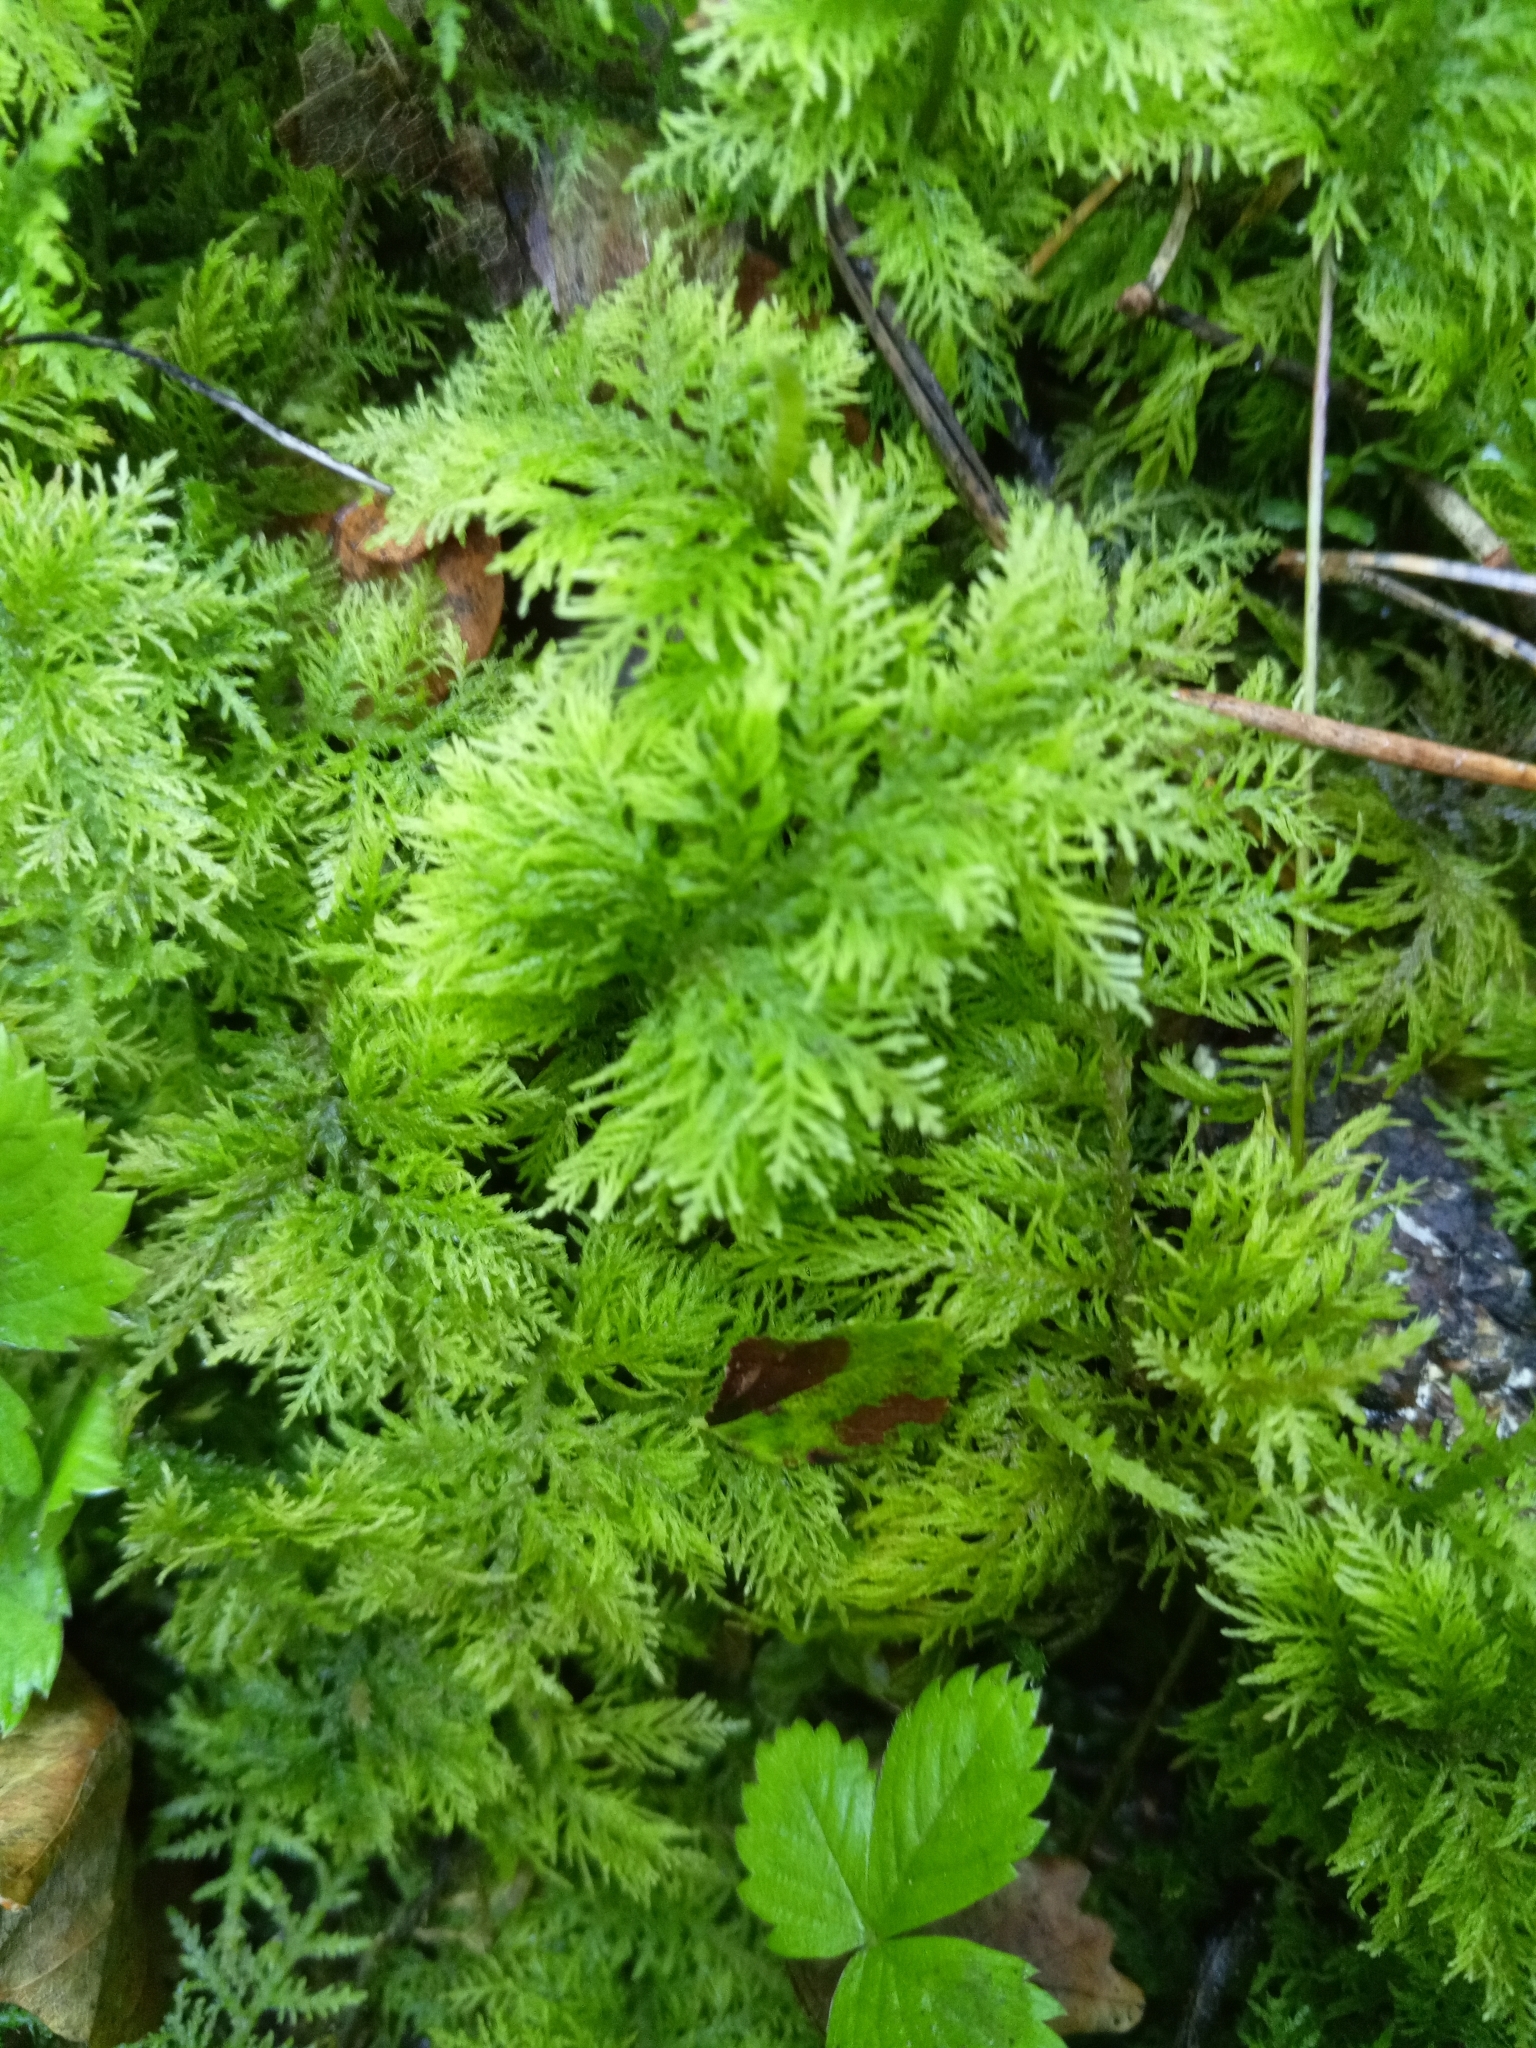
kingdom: Plantae
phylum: Bryophyta
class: Bryopsida
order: Hypnales
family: Thuidiaceae
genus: Thuidium
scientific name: Thuidium tamariscinum
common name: Common tamarisk-moss
